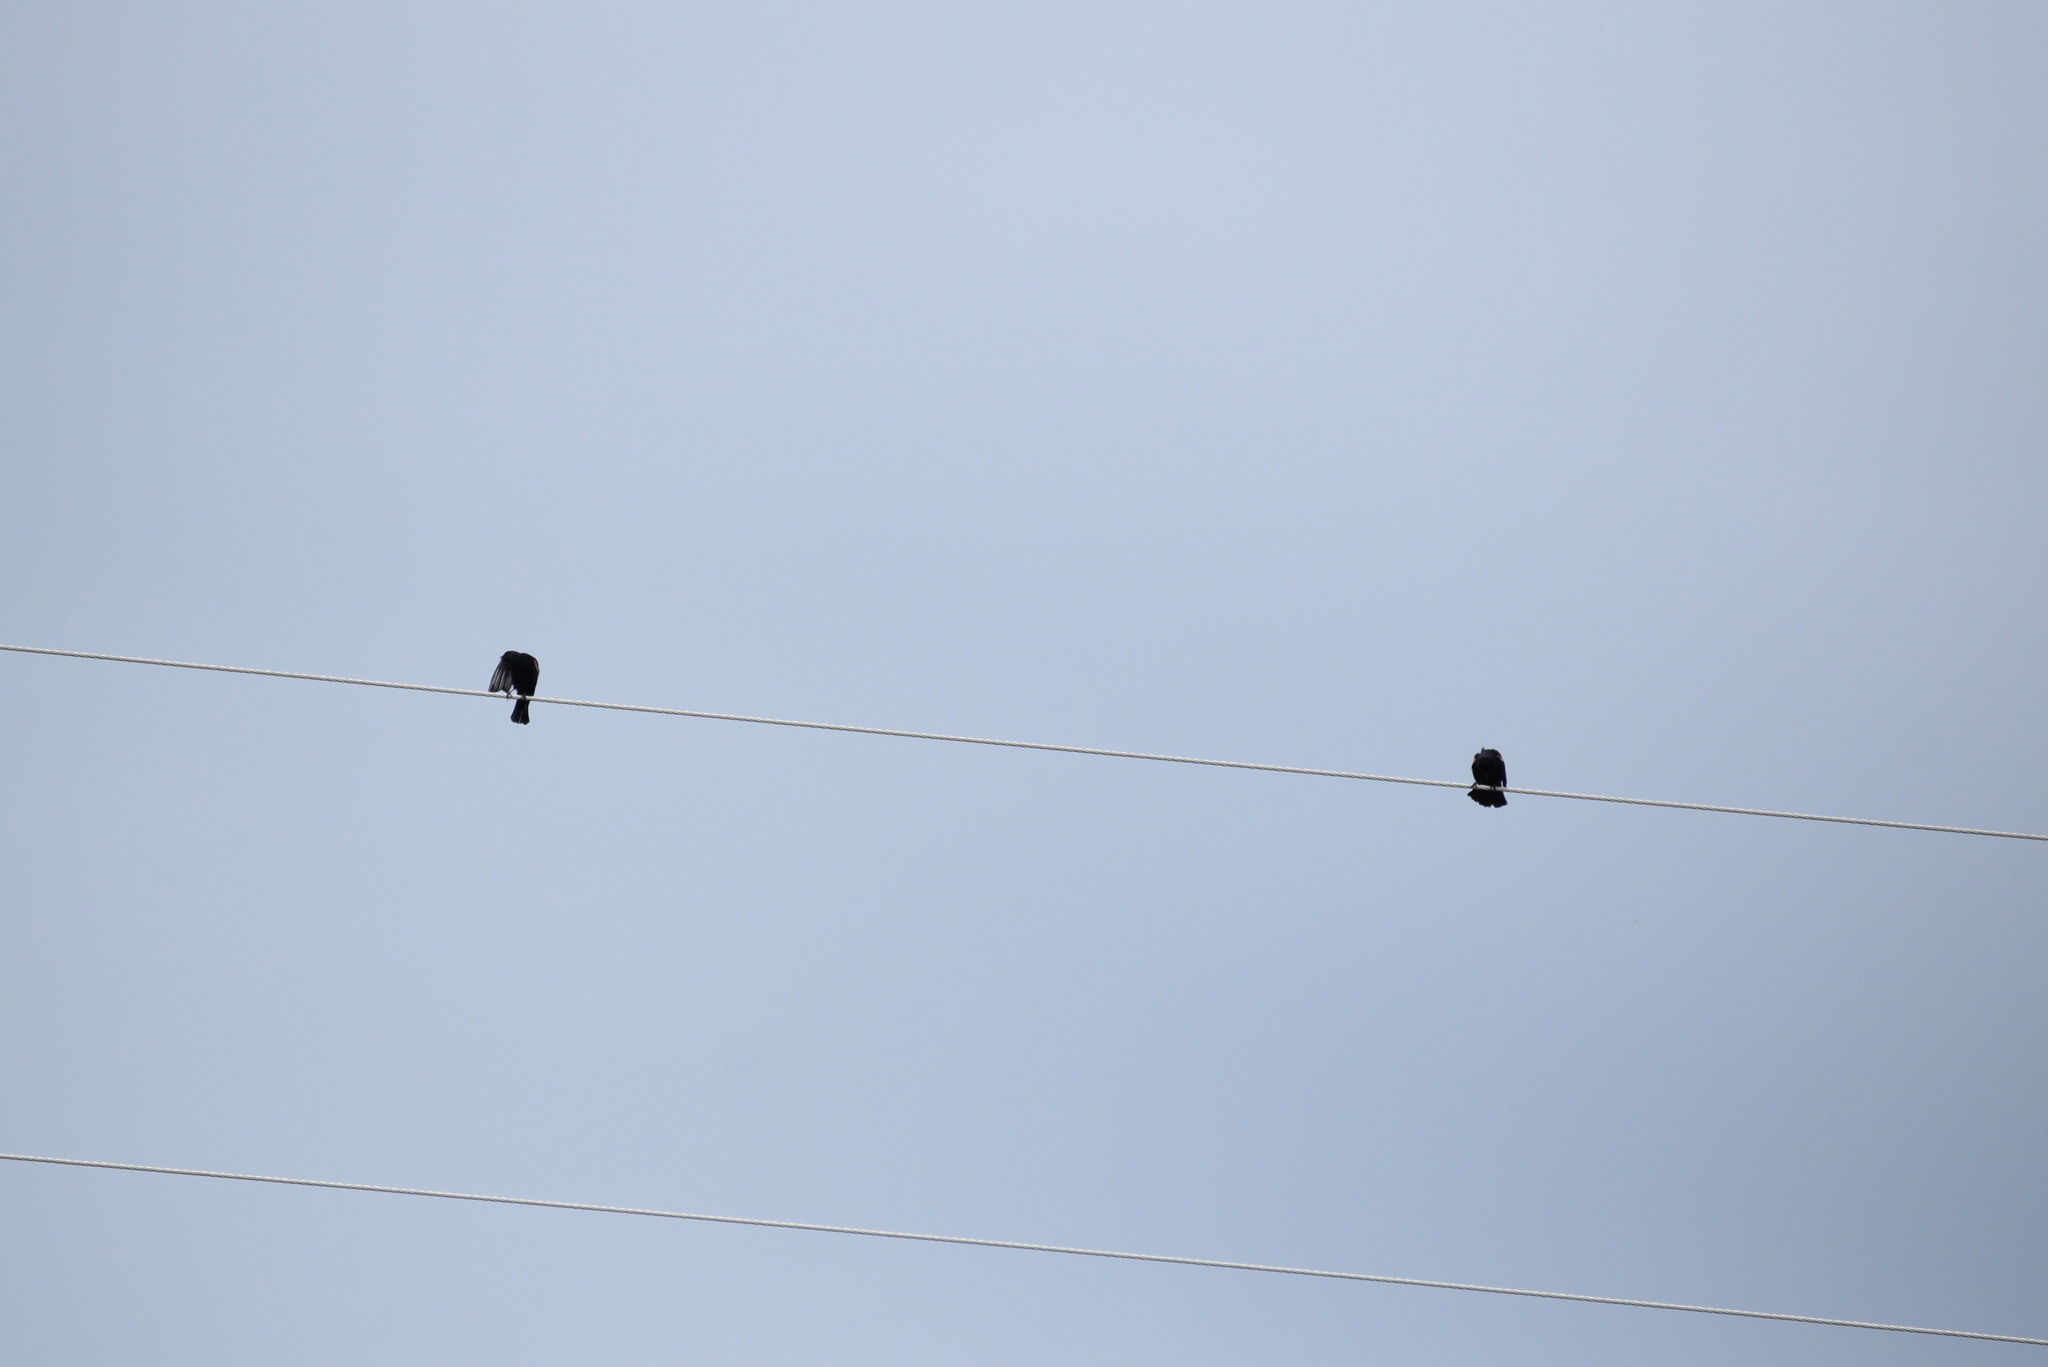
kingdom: Animalia
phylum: Chordata
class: Aves
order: Passeriformes
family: Icteridae
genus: Agelaius
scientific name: Agelaius phoeniceus
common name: Red-winged blackbird
